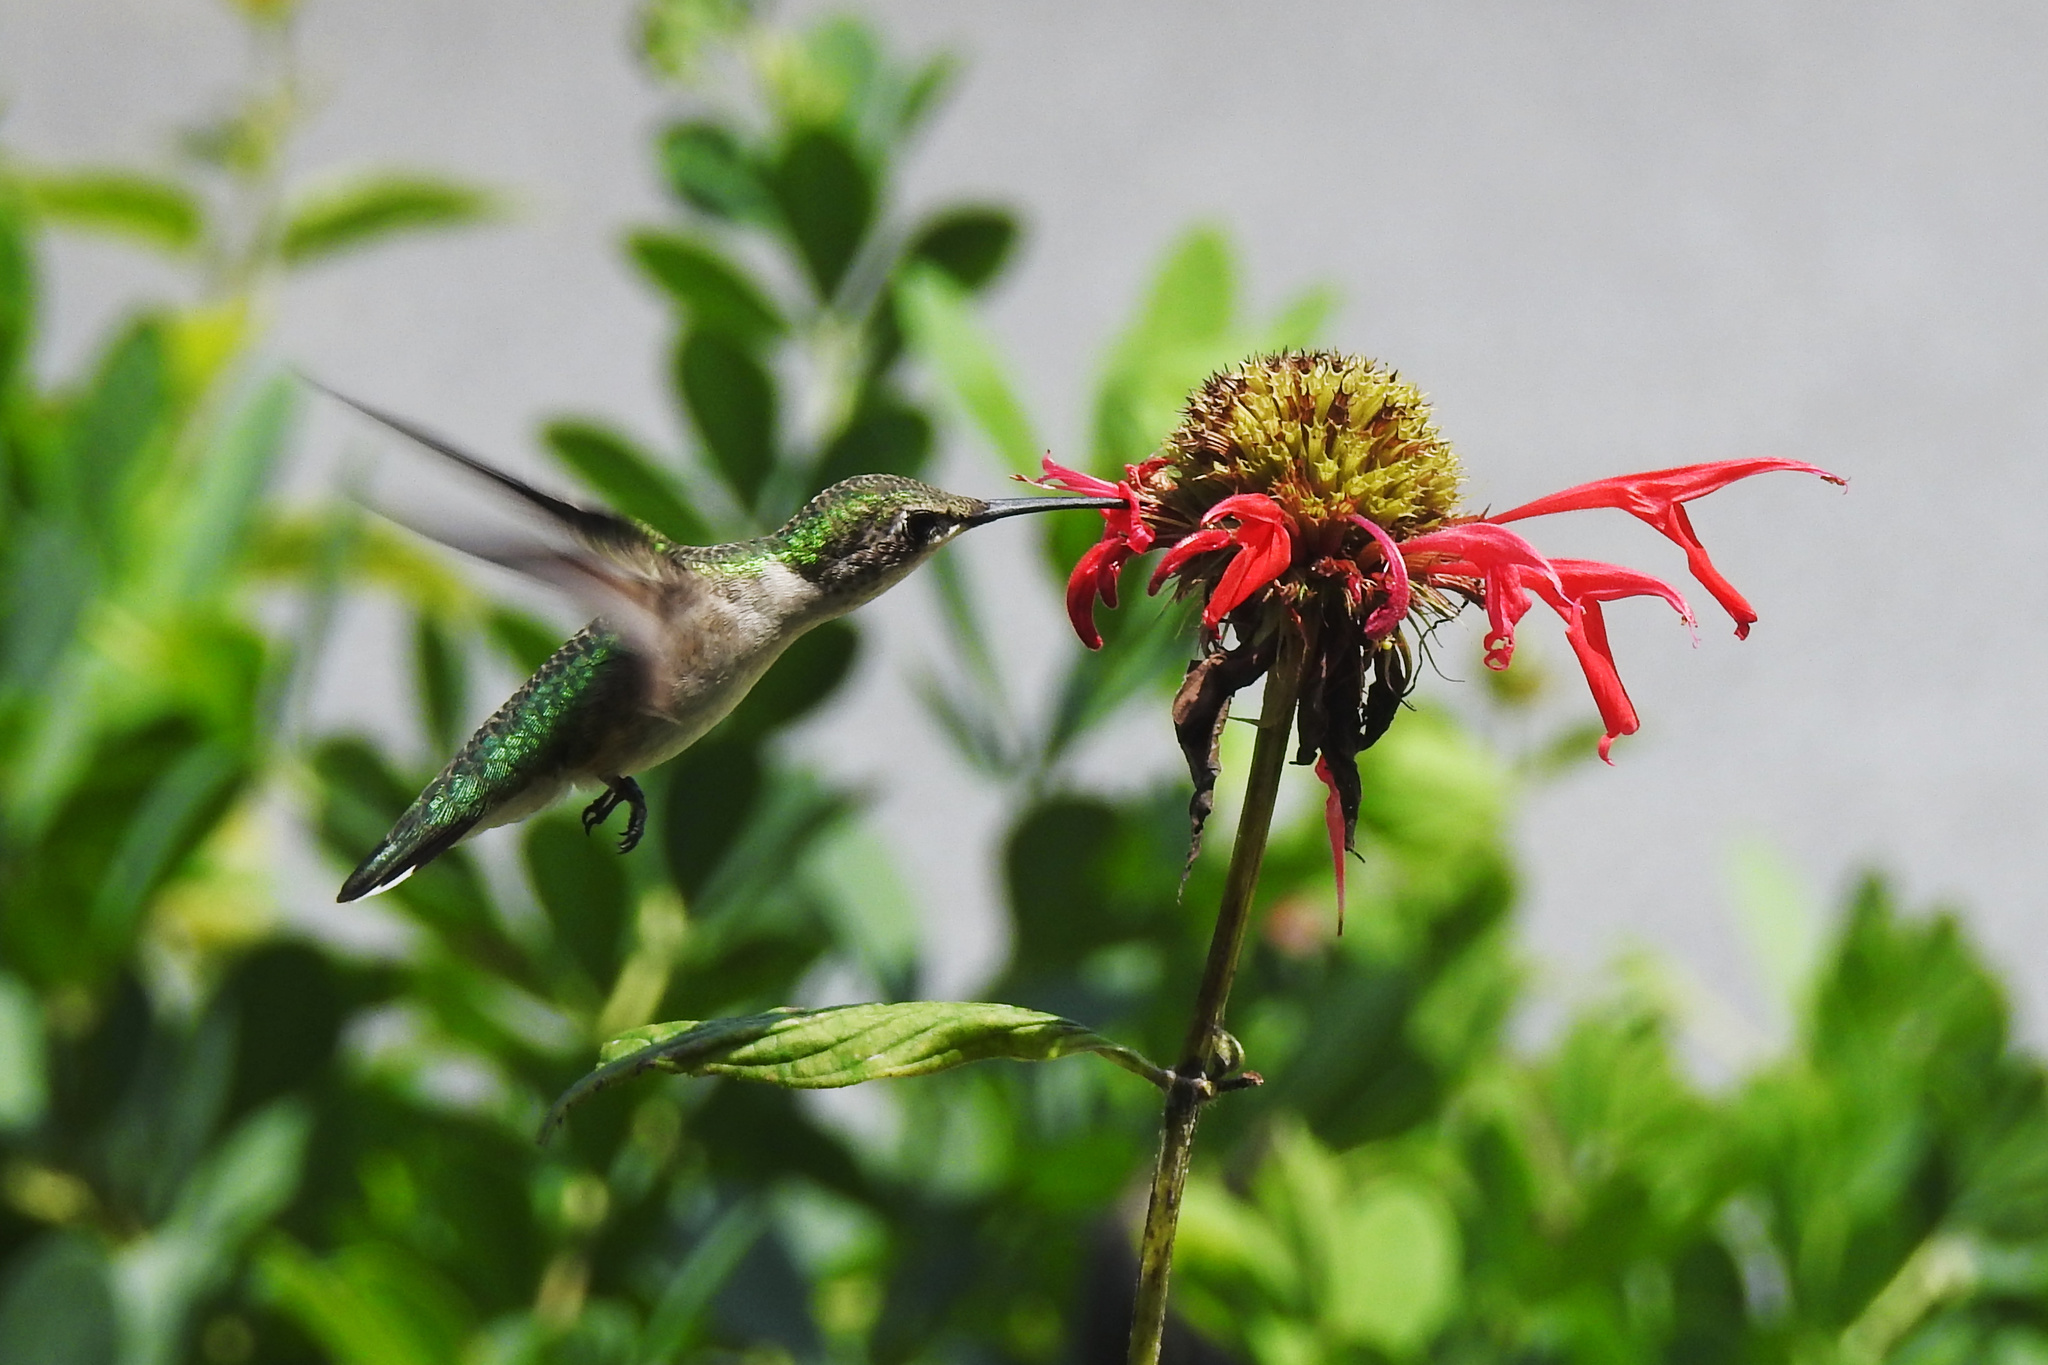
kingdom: Animalia
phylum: Chordata
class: Aves
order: Apodiformes
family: Trochilidae
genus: Archilochus
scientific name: Archilochus colubris
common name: Ruby-throated hummingbird
